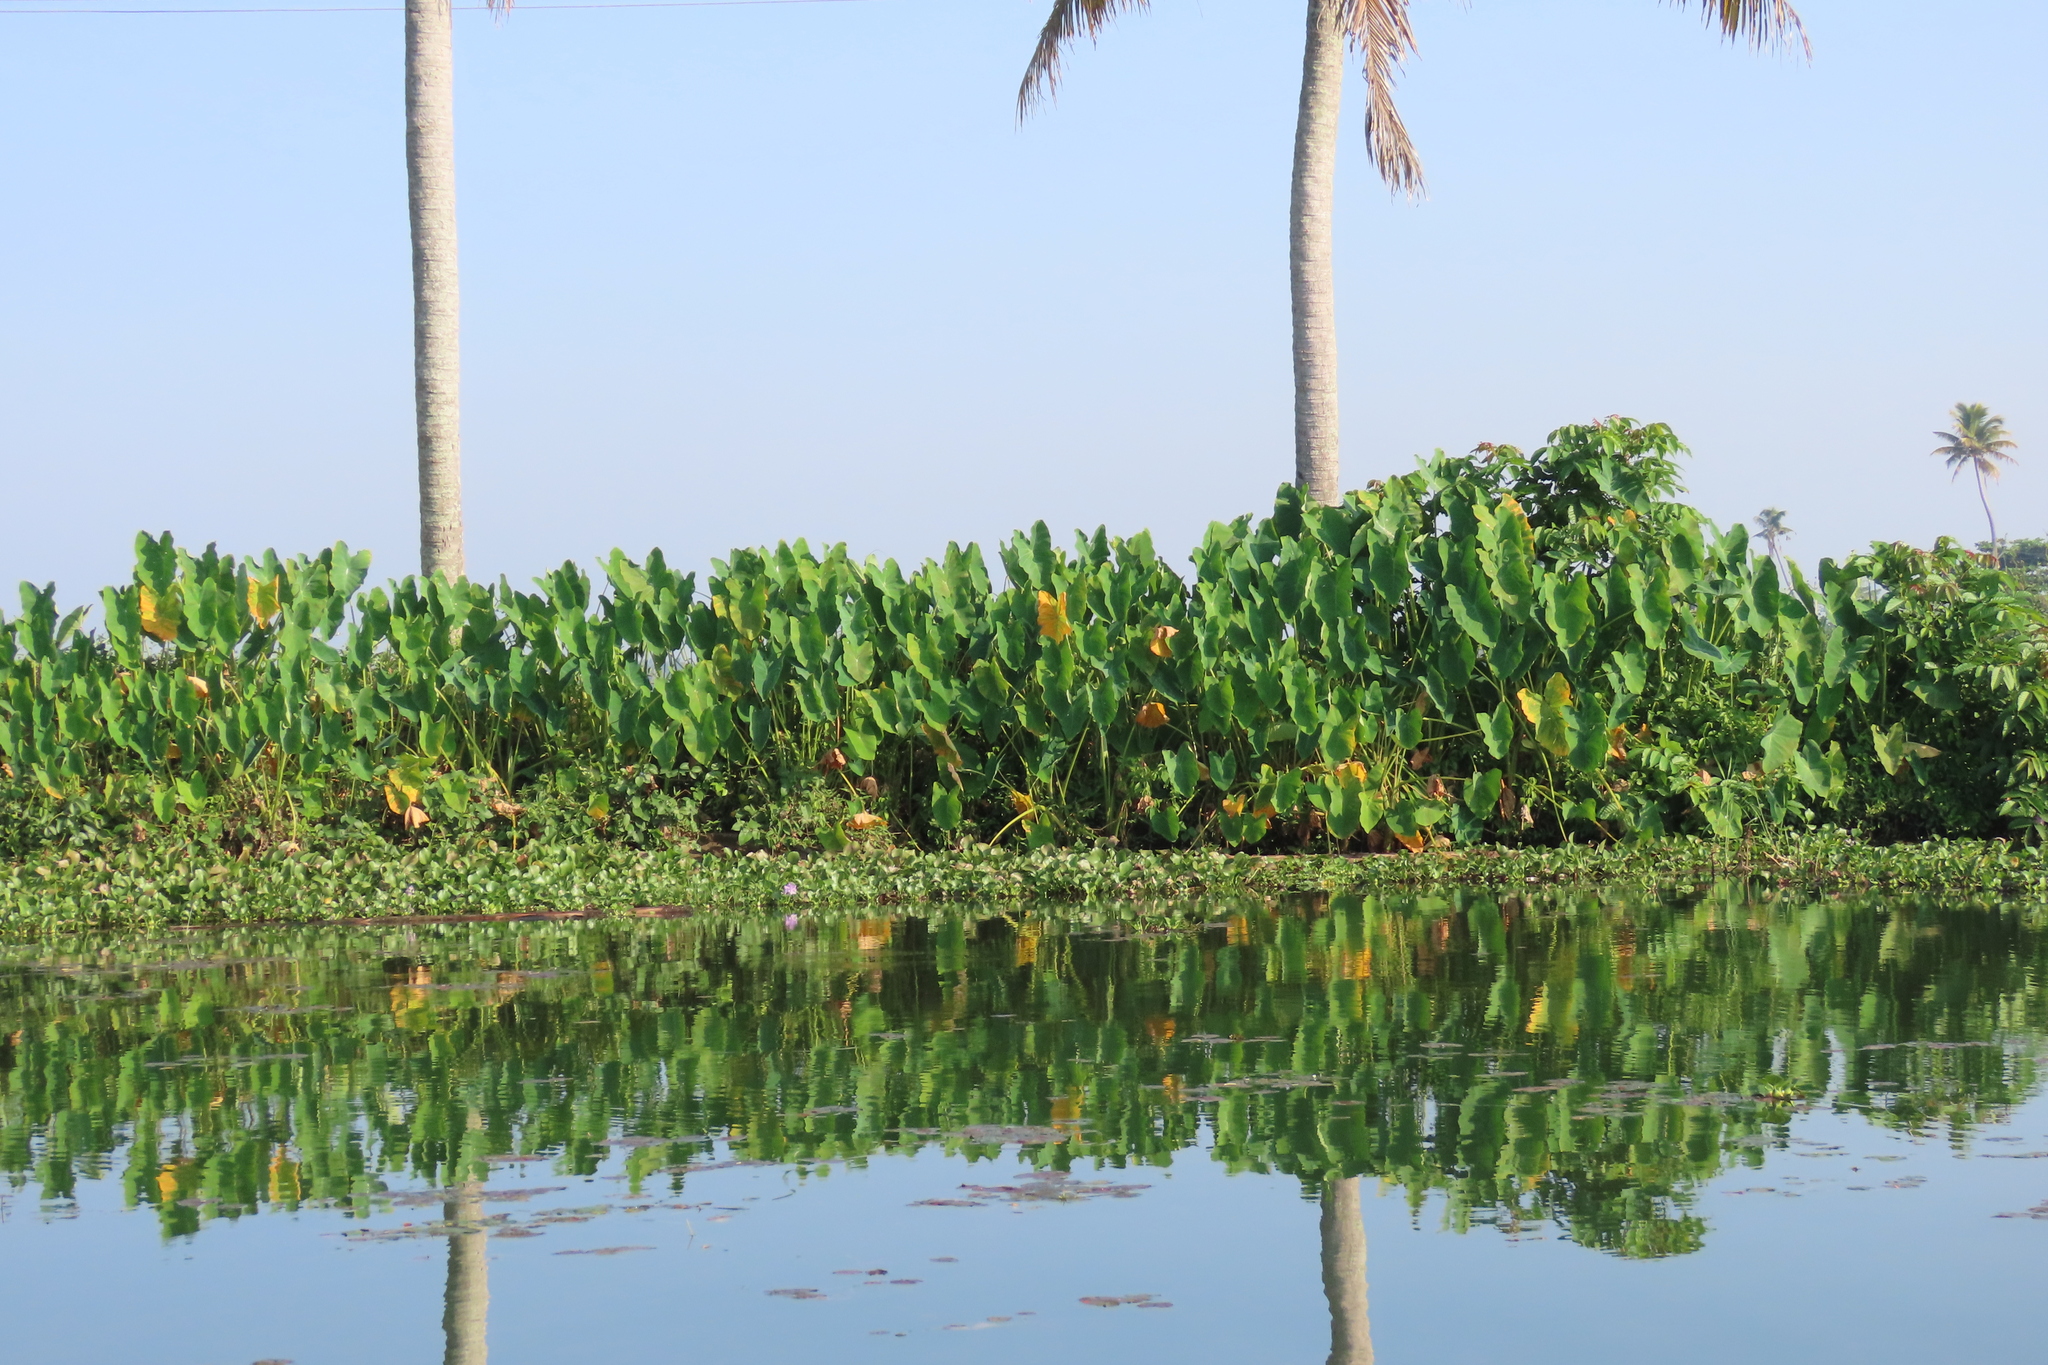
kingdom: Plantae
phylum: Tracheophyta
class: Liliopsida
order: Alismatales
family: Araceae
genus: Colocasia
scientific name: Colocasia esculenta
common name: Taro
